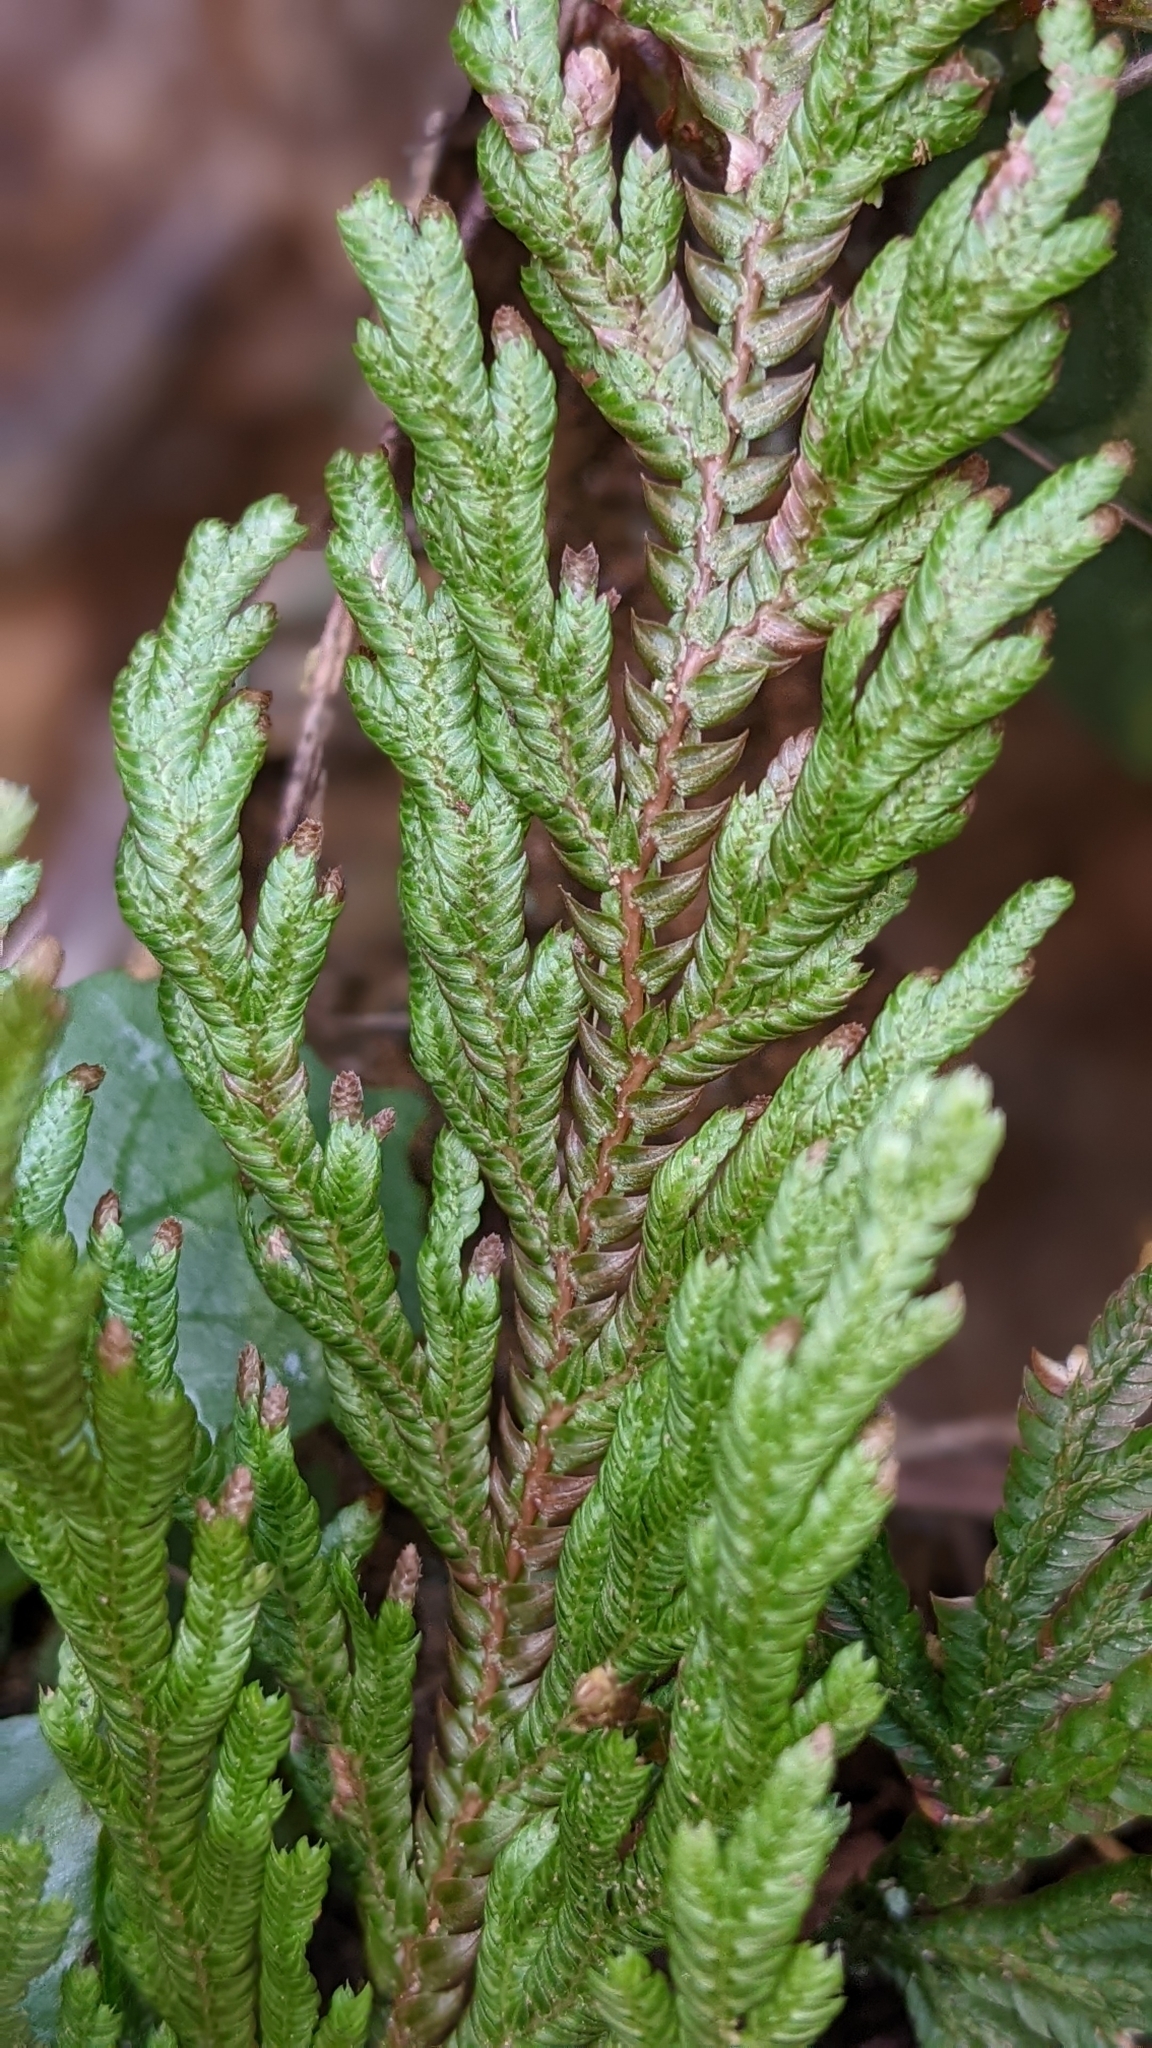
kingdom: Plantae
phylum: Tracheophyta
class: Lycopodiopsida
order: Selaginellales
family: Selaginellaceae
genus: Selaginella
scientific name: Selaginella involvens
